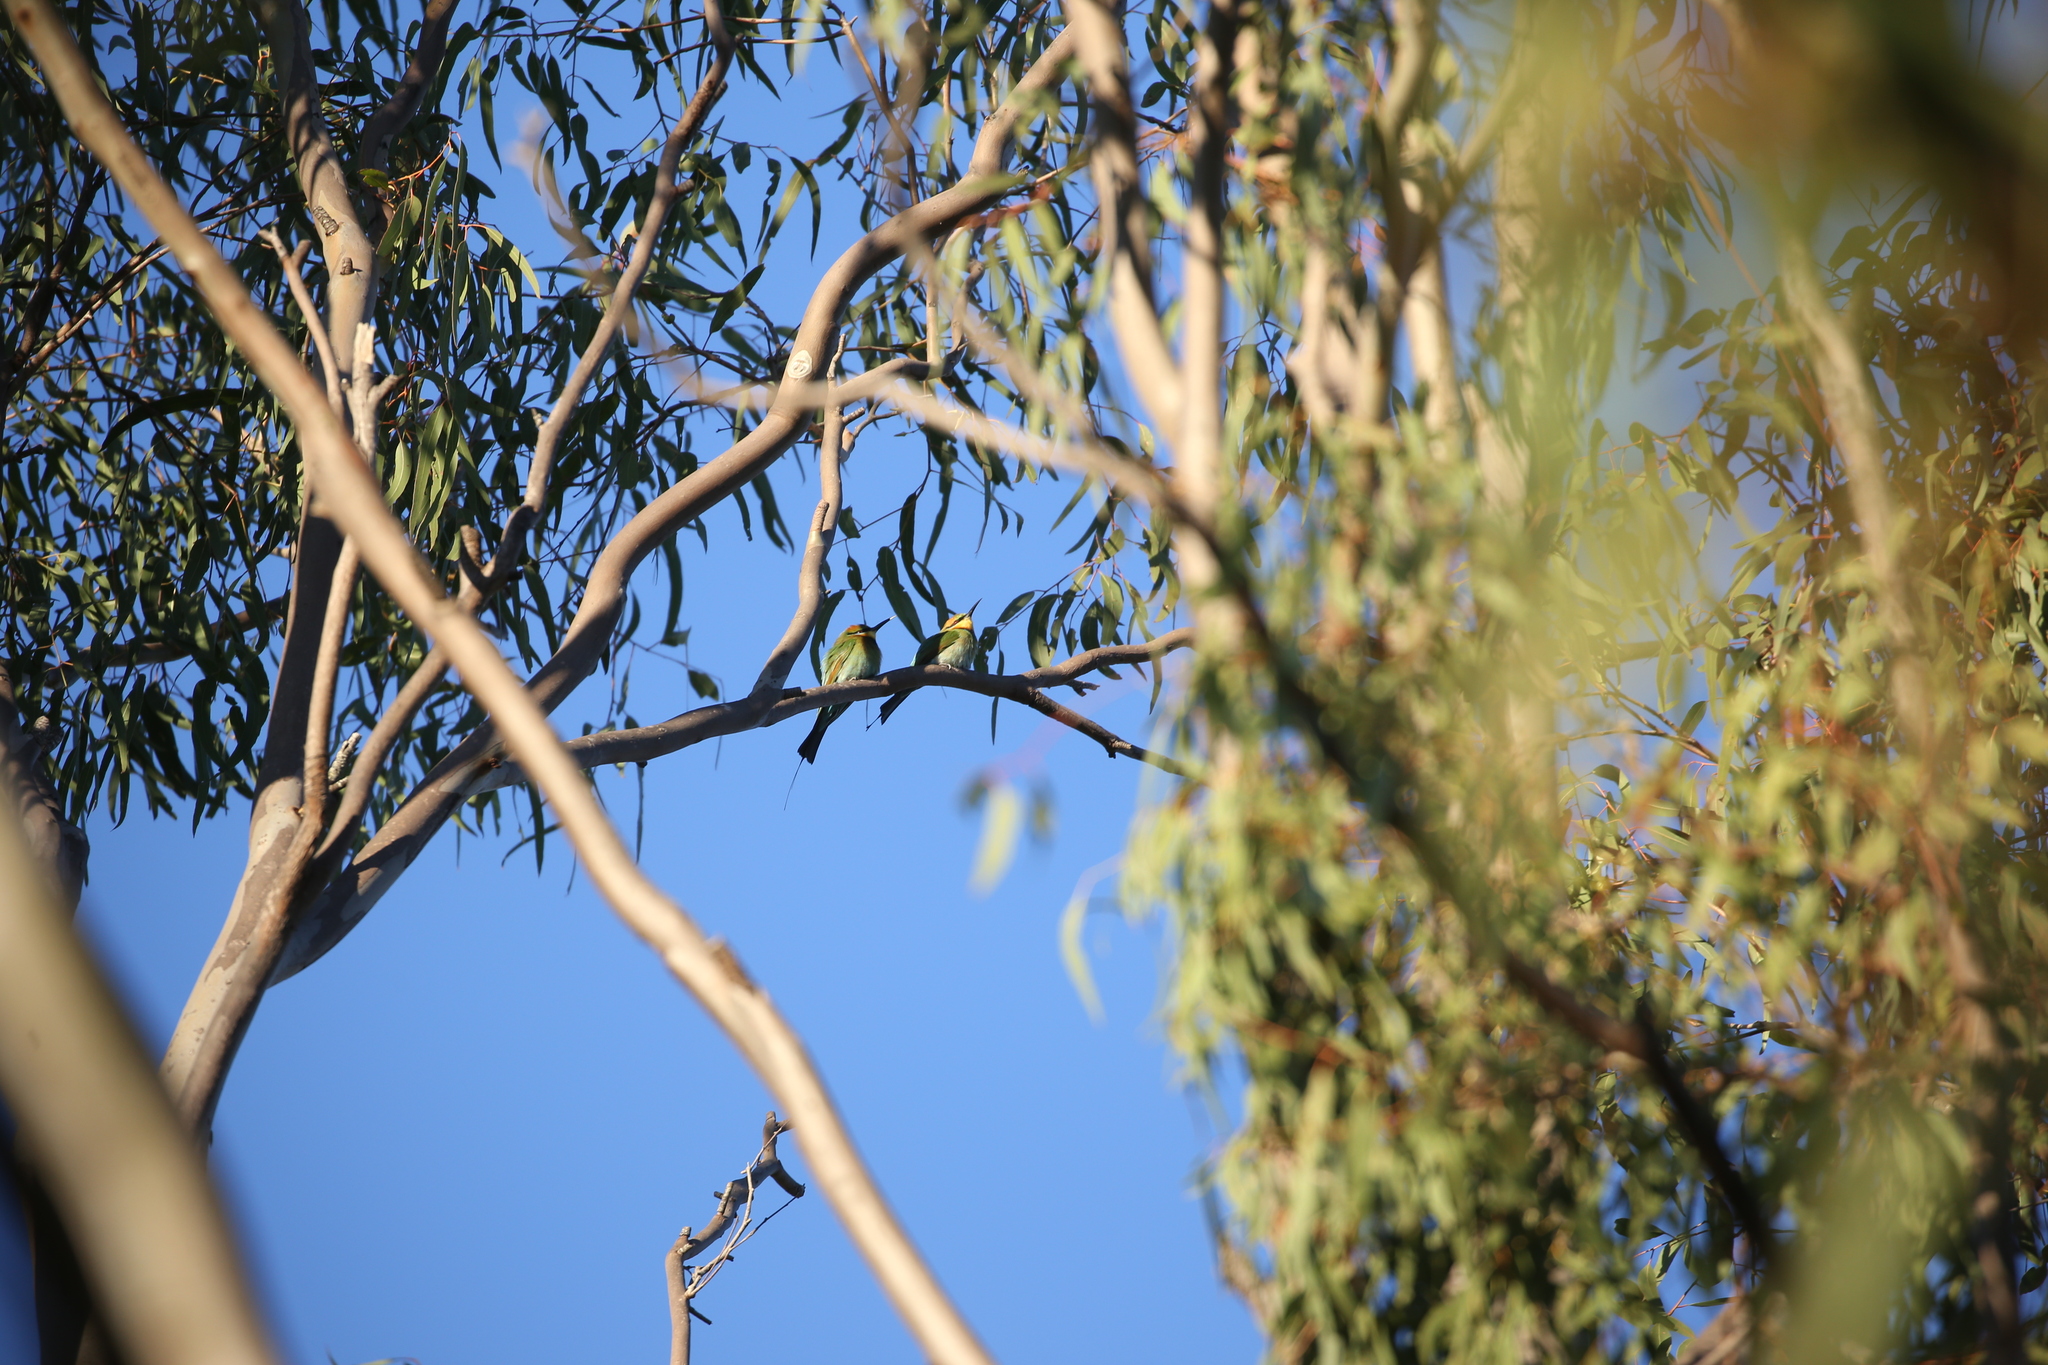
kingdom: Animalia
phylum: Chordata
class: Aves
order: Coraciiformes
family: Meropidae
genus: Merops
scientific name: Merops ornatus
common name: Rainbow bee-eater
